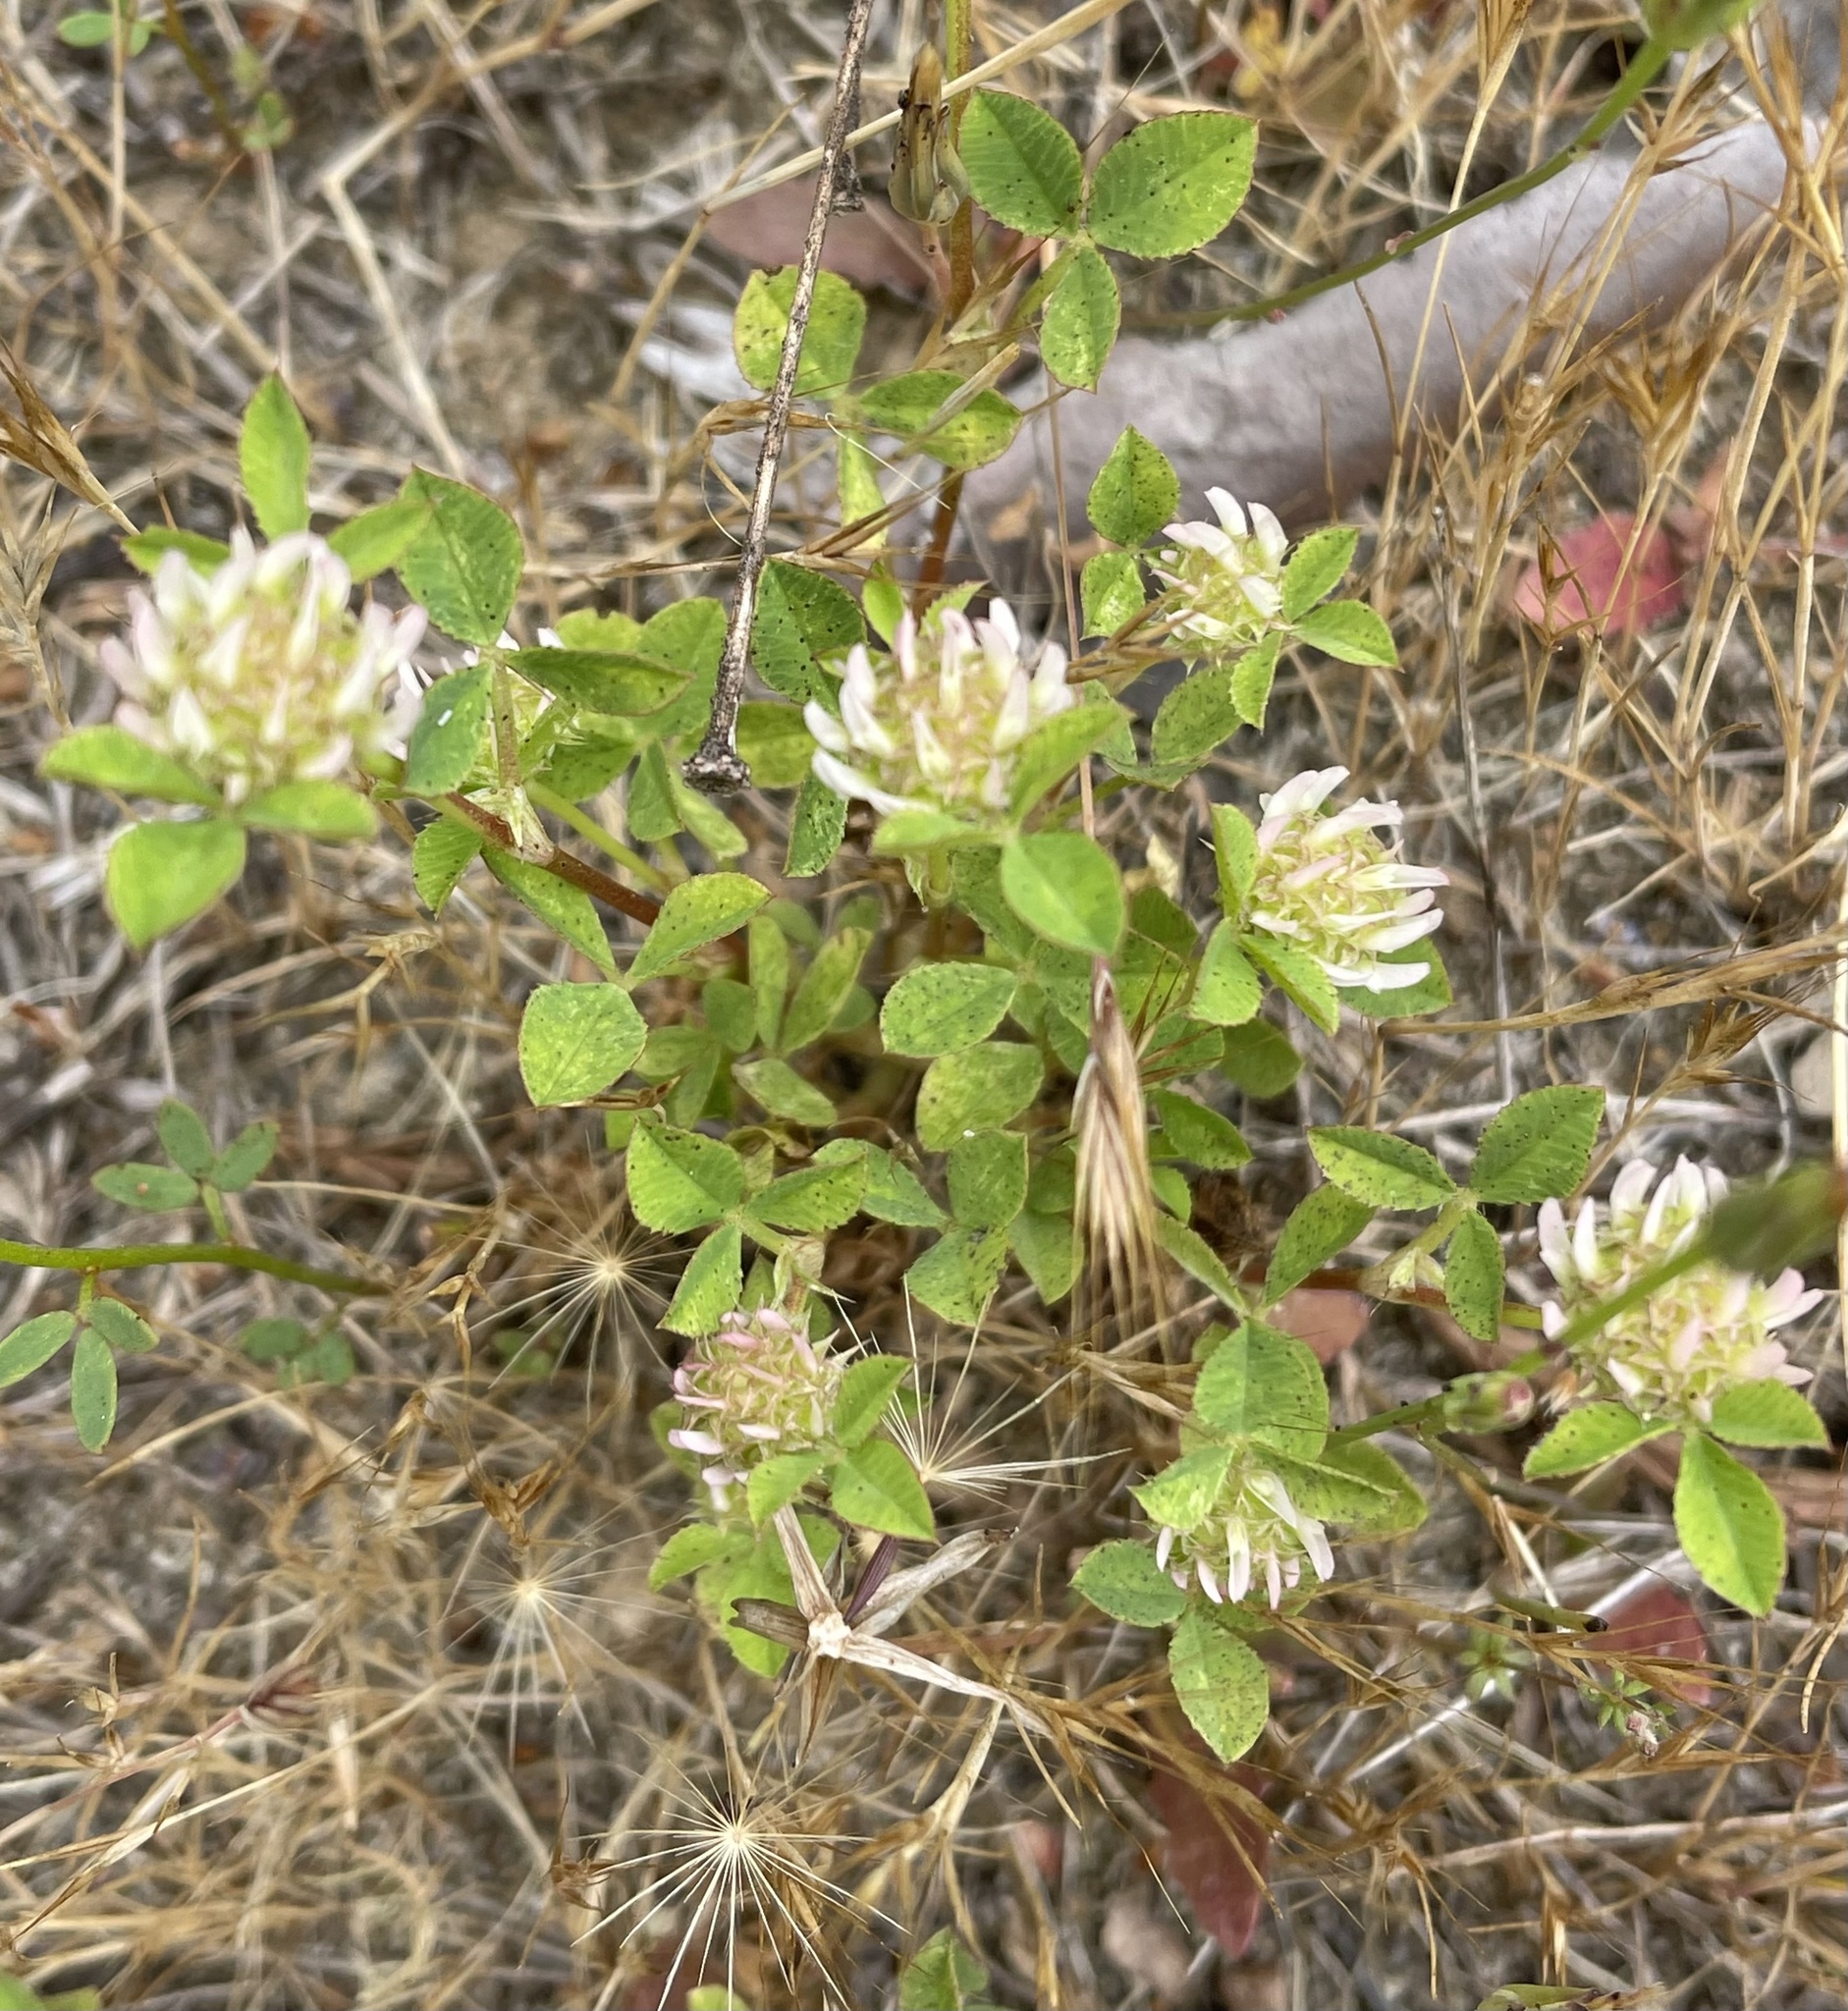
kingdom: Plantae
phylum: Tracheophyta
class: Magnoliopsida
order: Fabales
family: Fabaceae
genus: Trifolium
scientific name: Trifolium glomeratum
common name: Clustered clover
